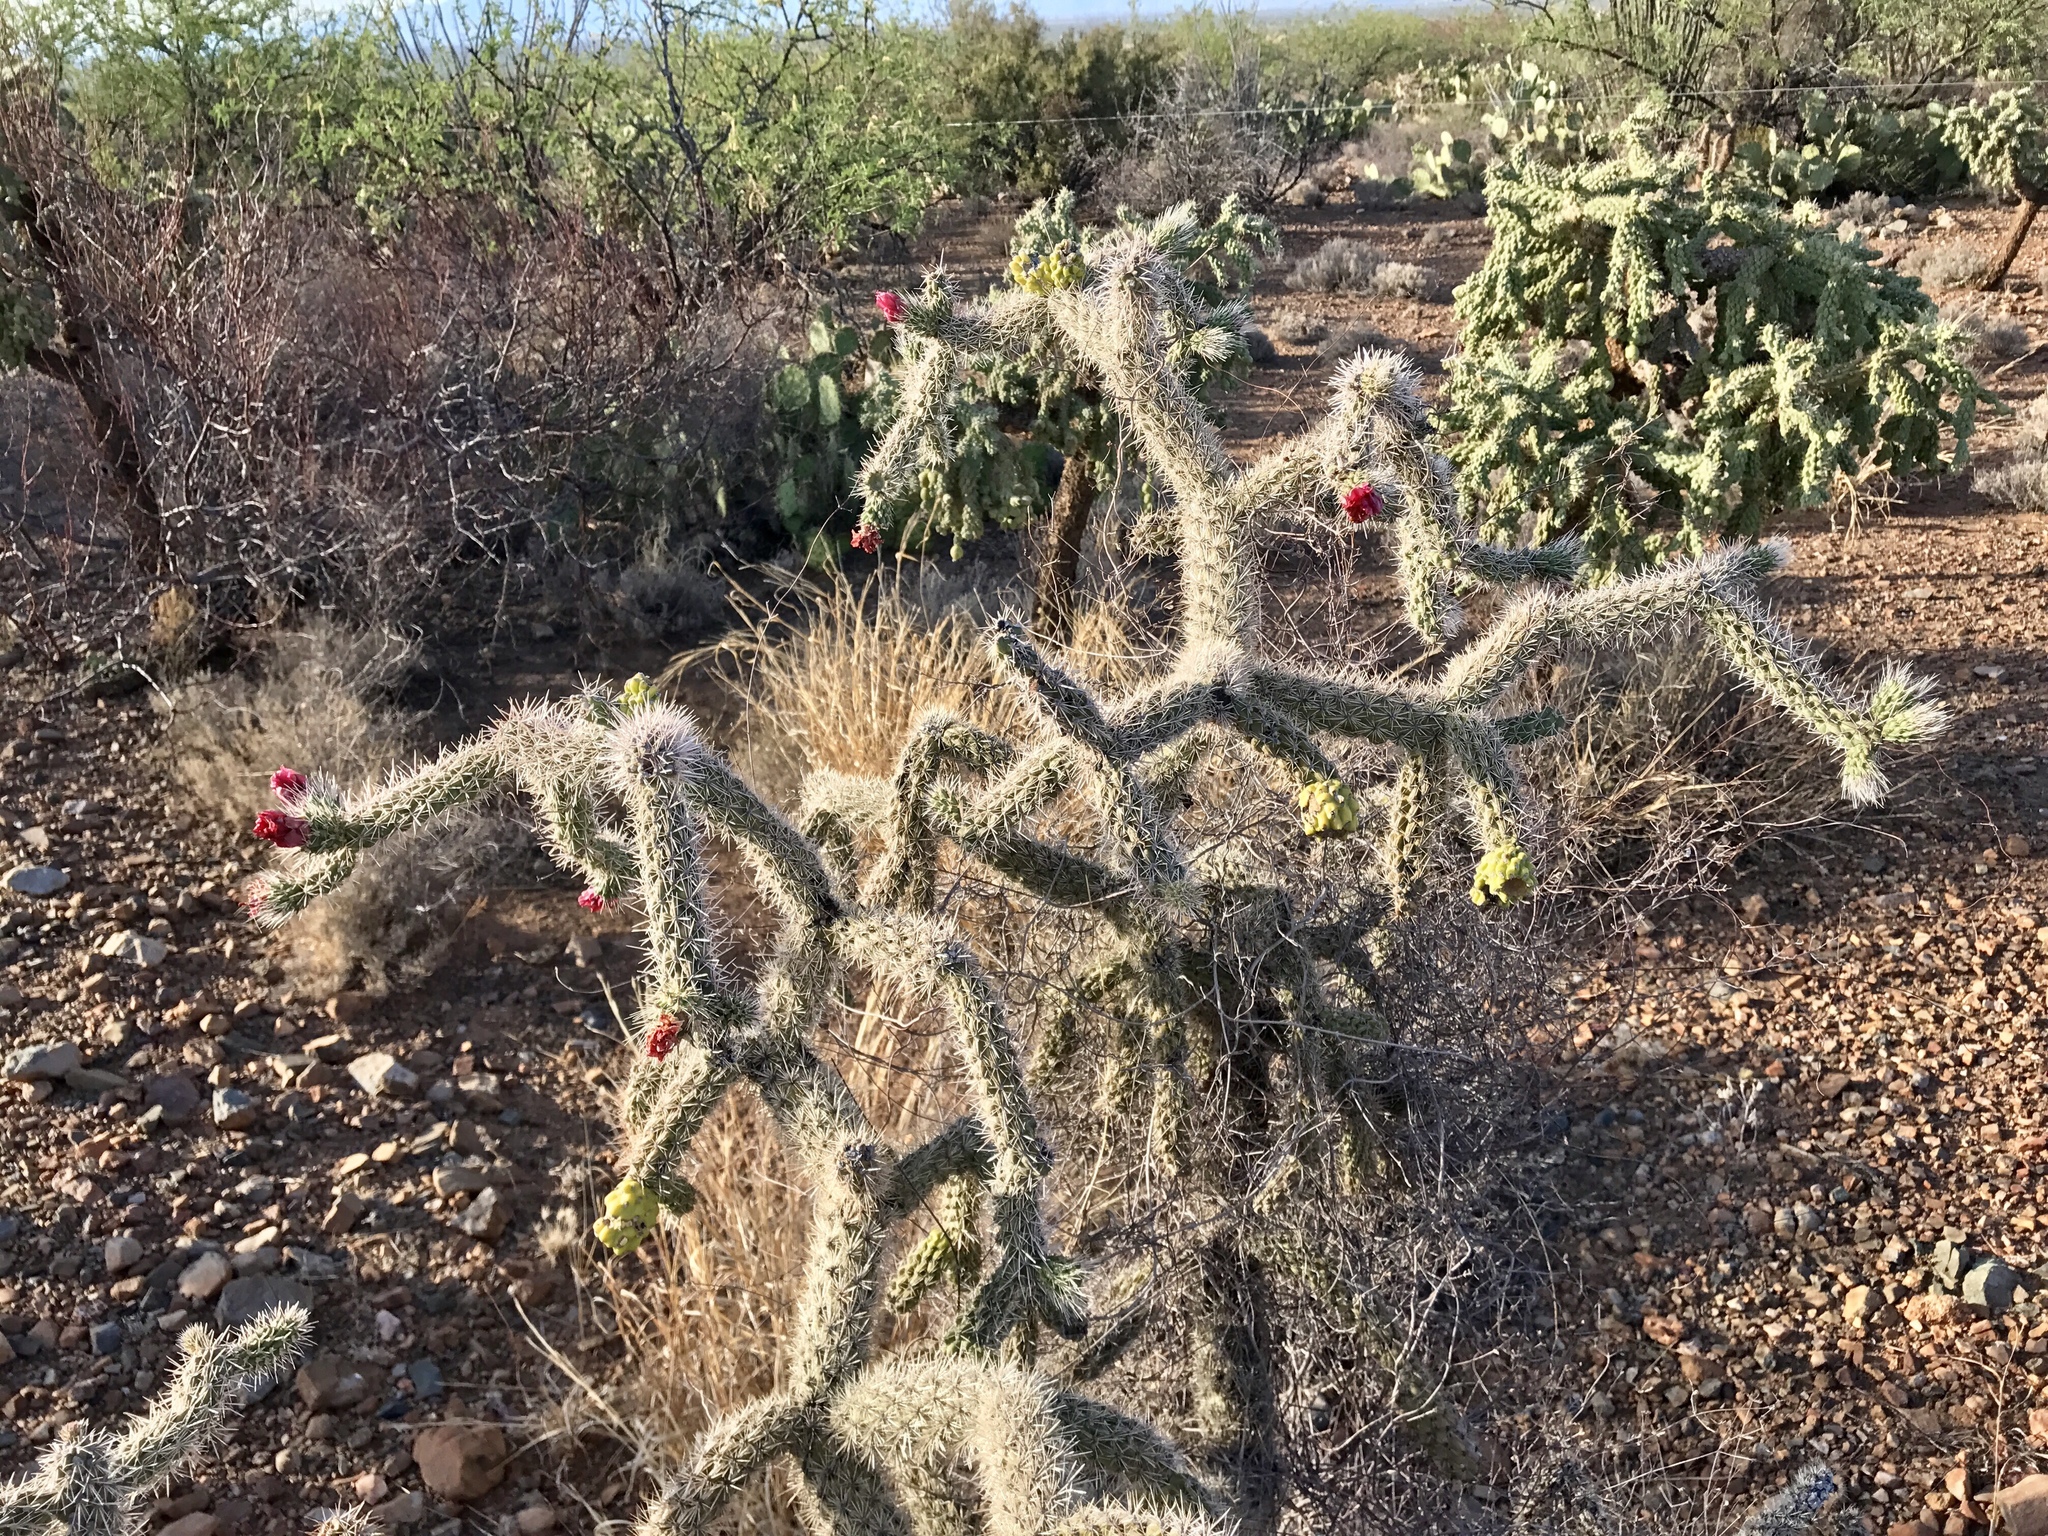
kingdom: Plantae
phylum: Tracheophyta
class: Magnoliopsida
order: Caryophyllales
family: Cactaceae
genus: Cylindropuntia
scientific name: Cylindropuntia imbricata
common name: Candelabrum cactus
